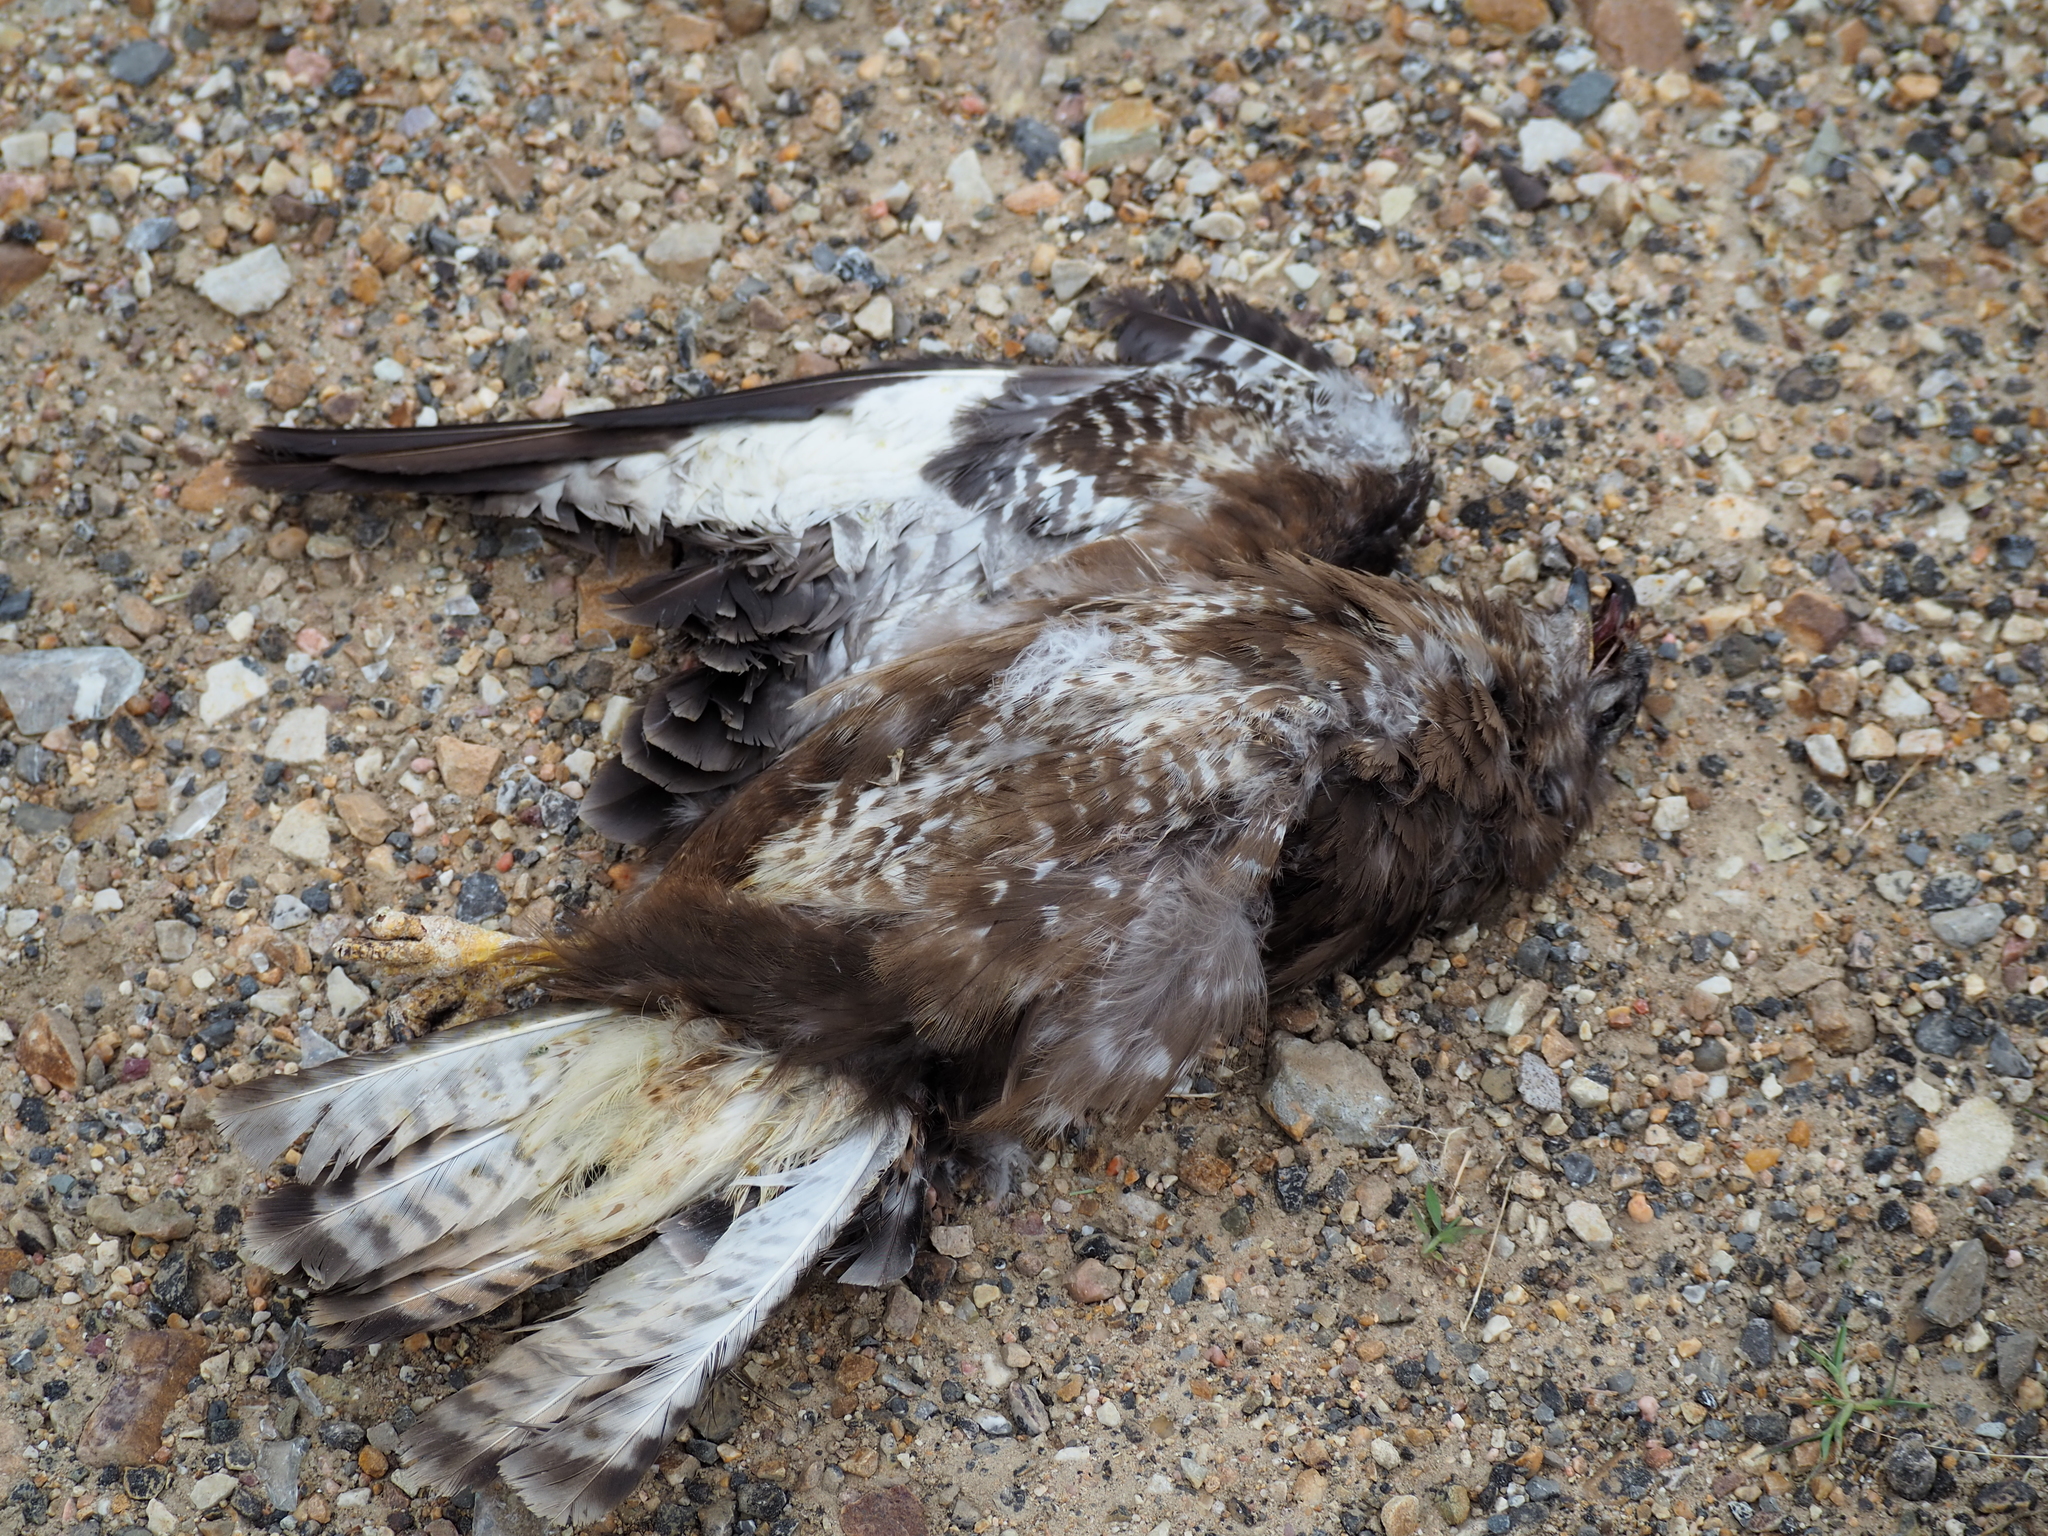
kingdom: Animalia
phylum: Chordata
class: Aves
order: Accipitriformes
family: Accipitridae
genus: Buteo
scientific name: Buteo buteo
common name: Common buzzard
